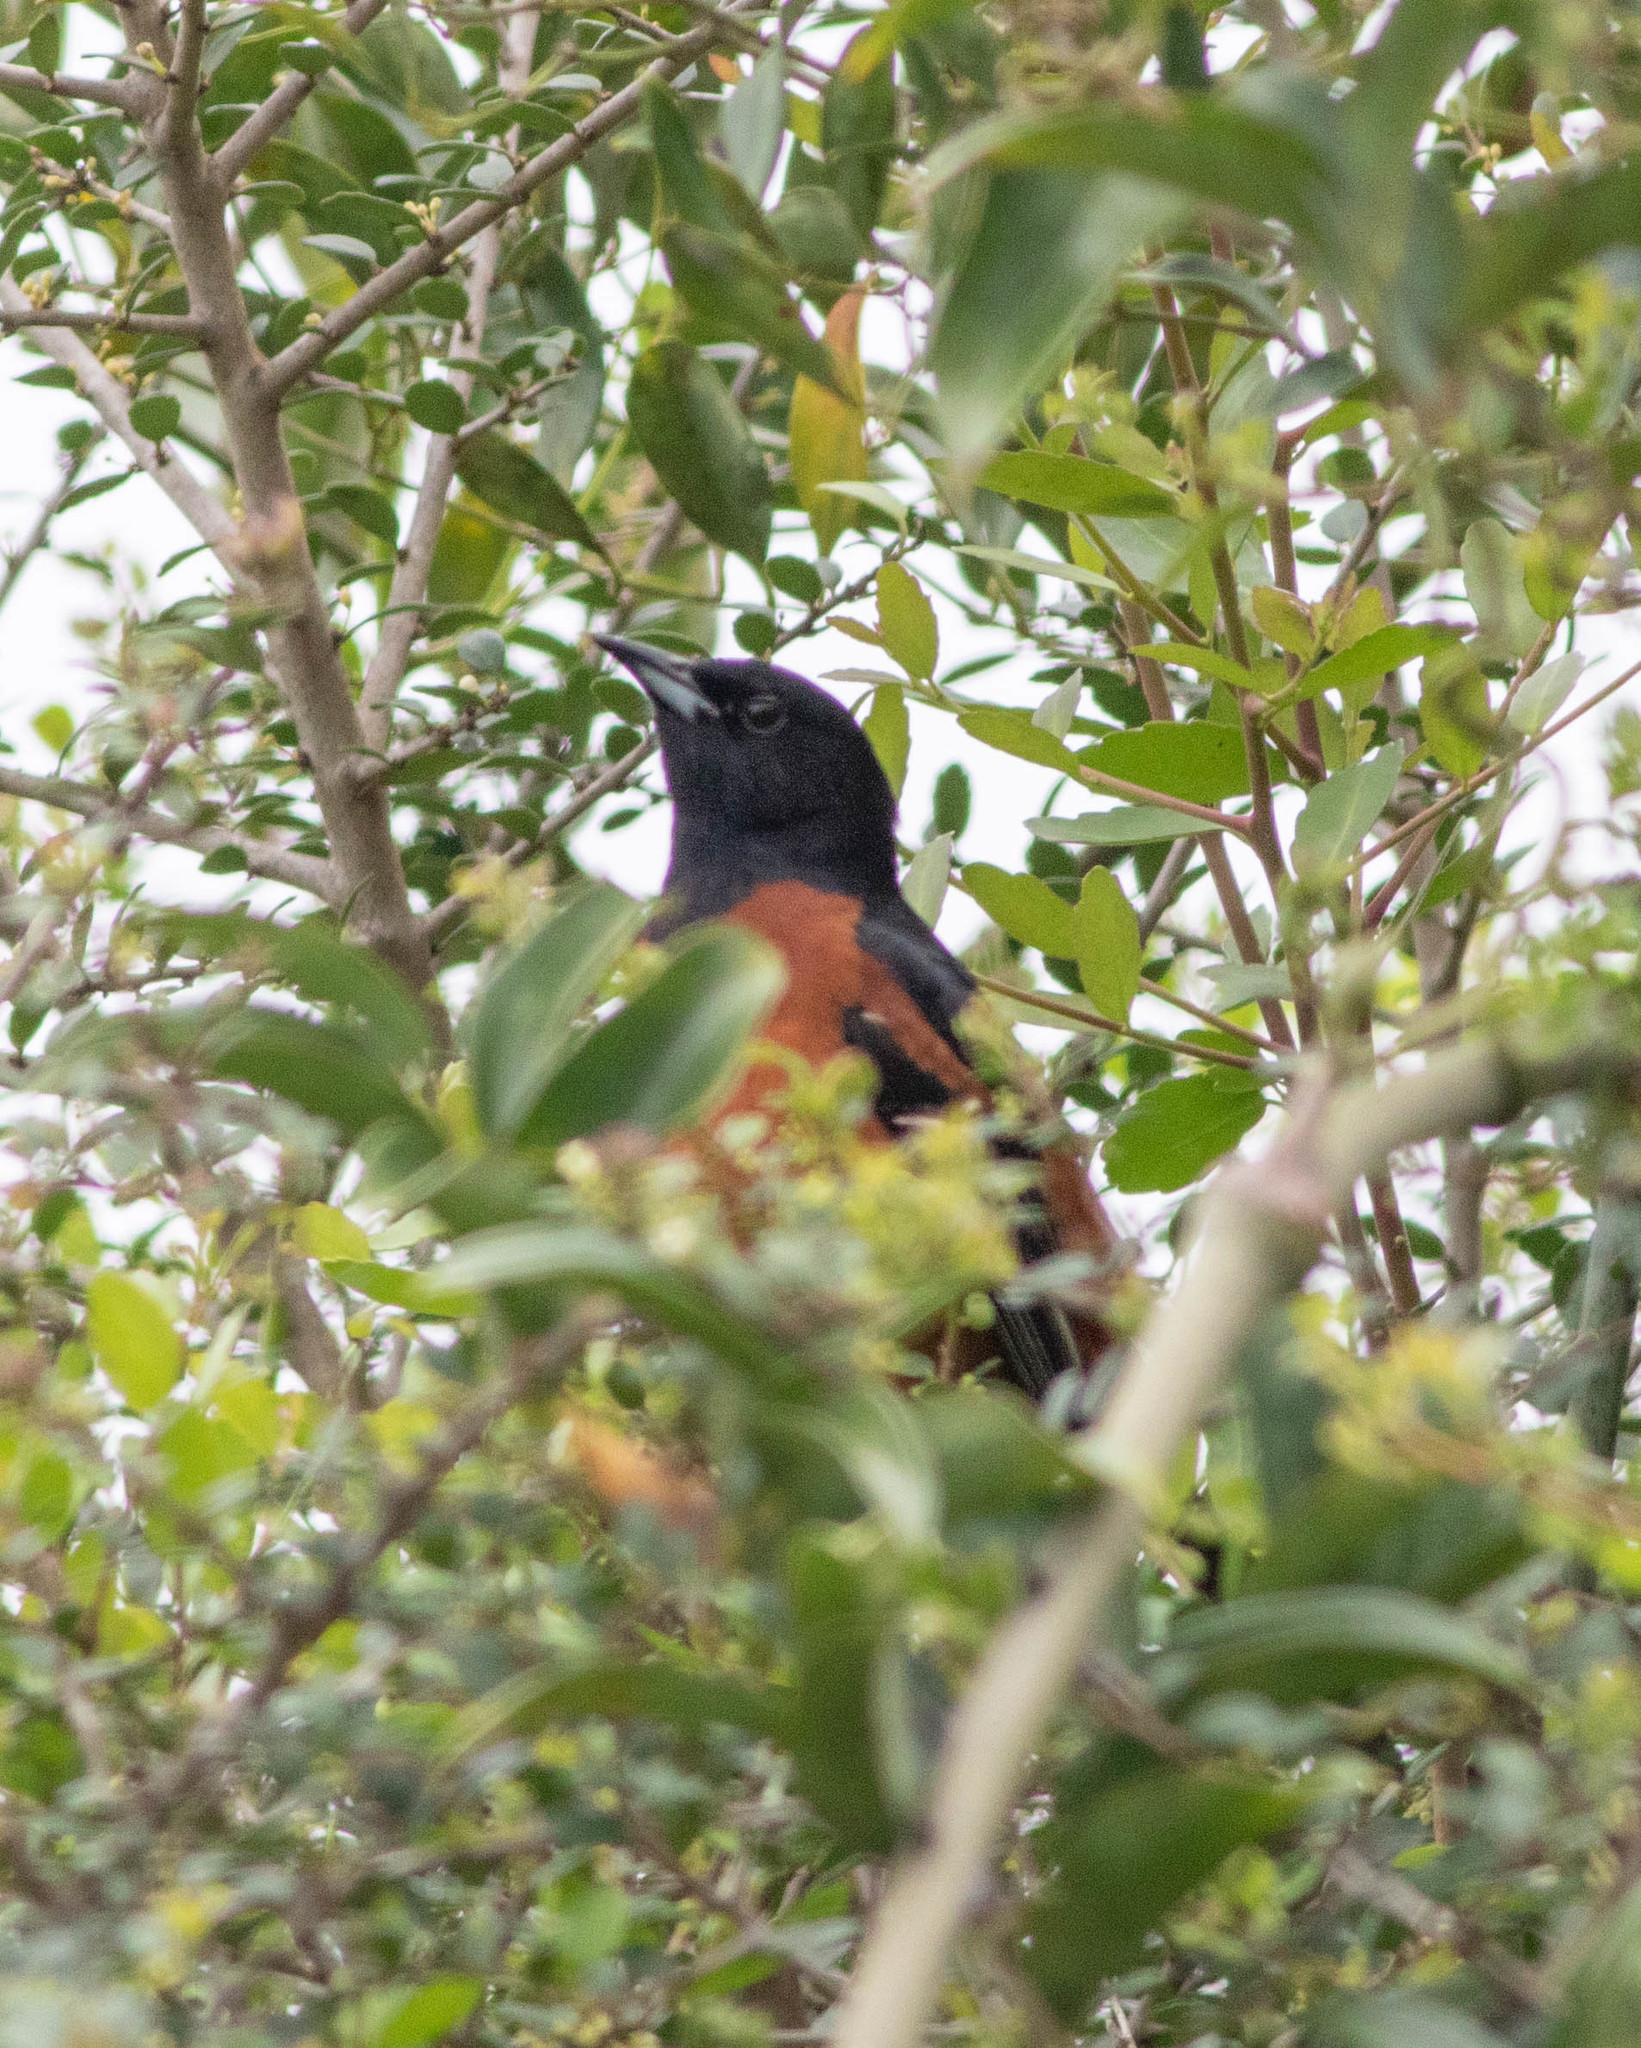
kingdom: Animalia
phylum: Chordata
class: Aves
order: Passeriformes
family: Icteridae
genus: Icterus
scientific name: Icterus spurius
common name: Orchard oriole
